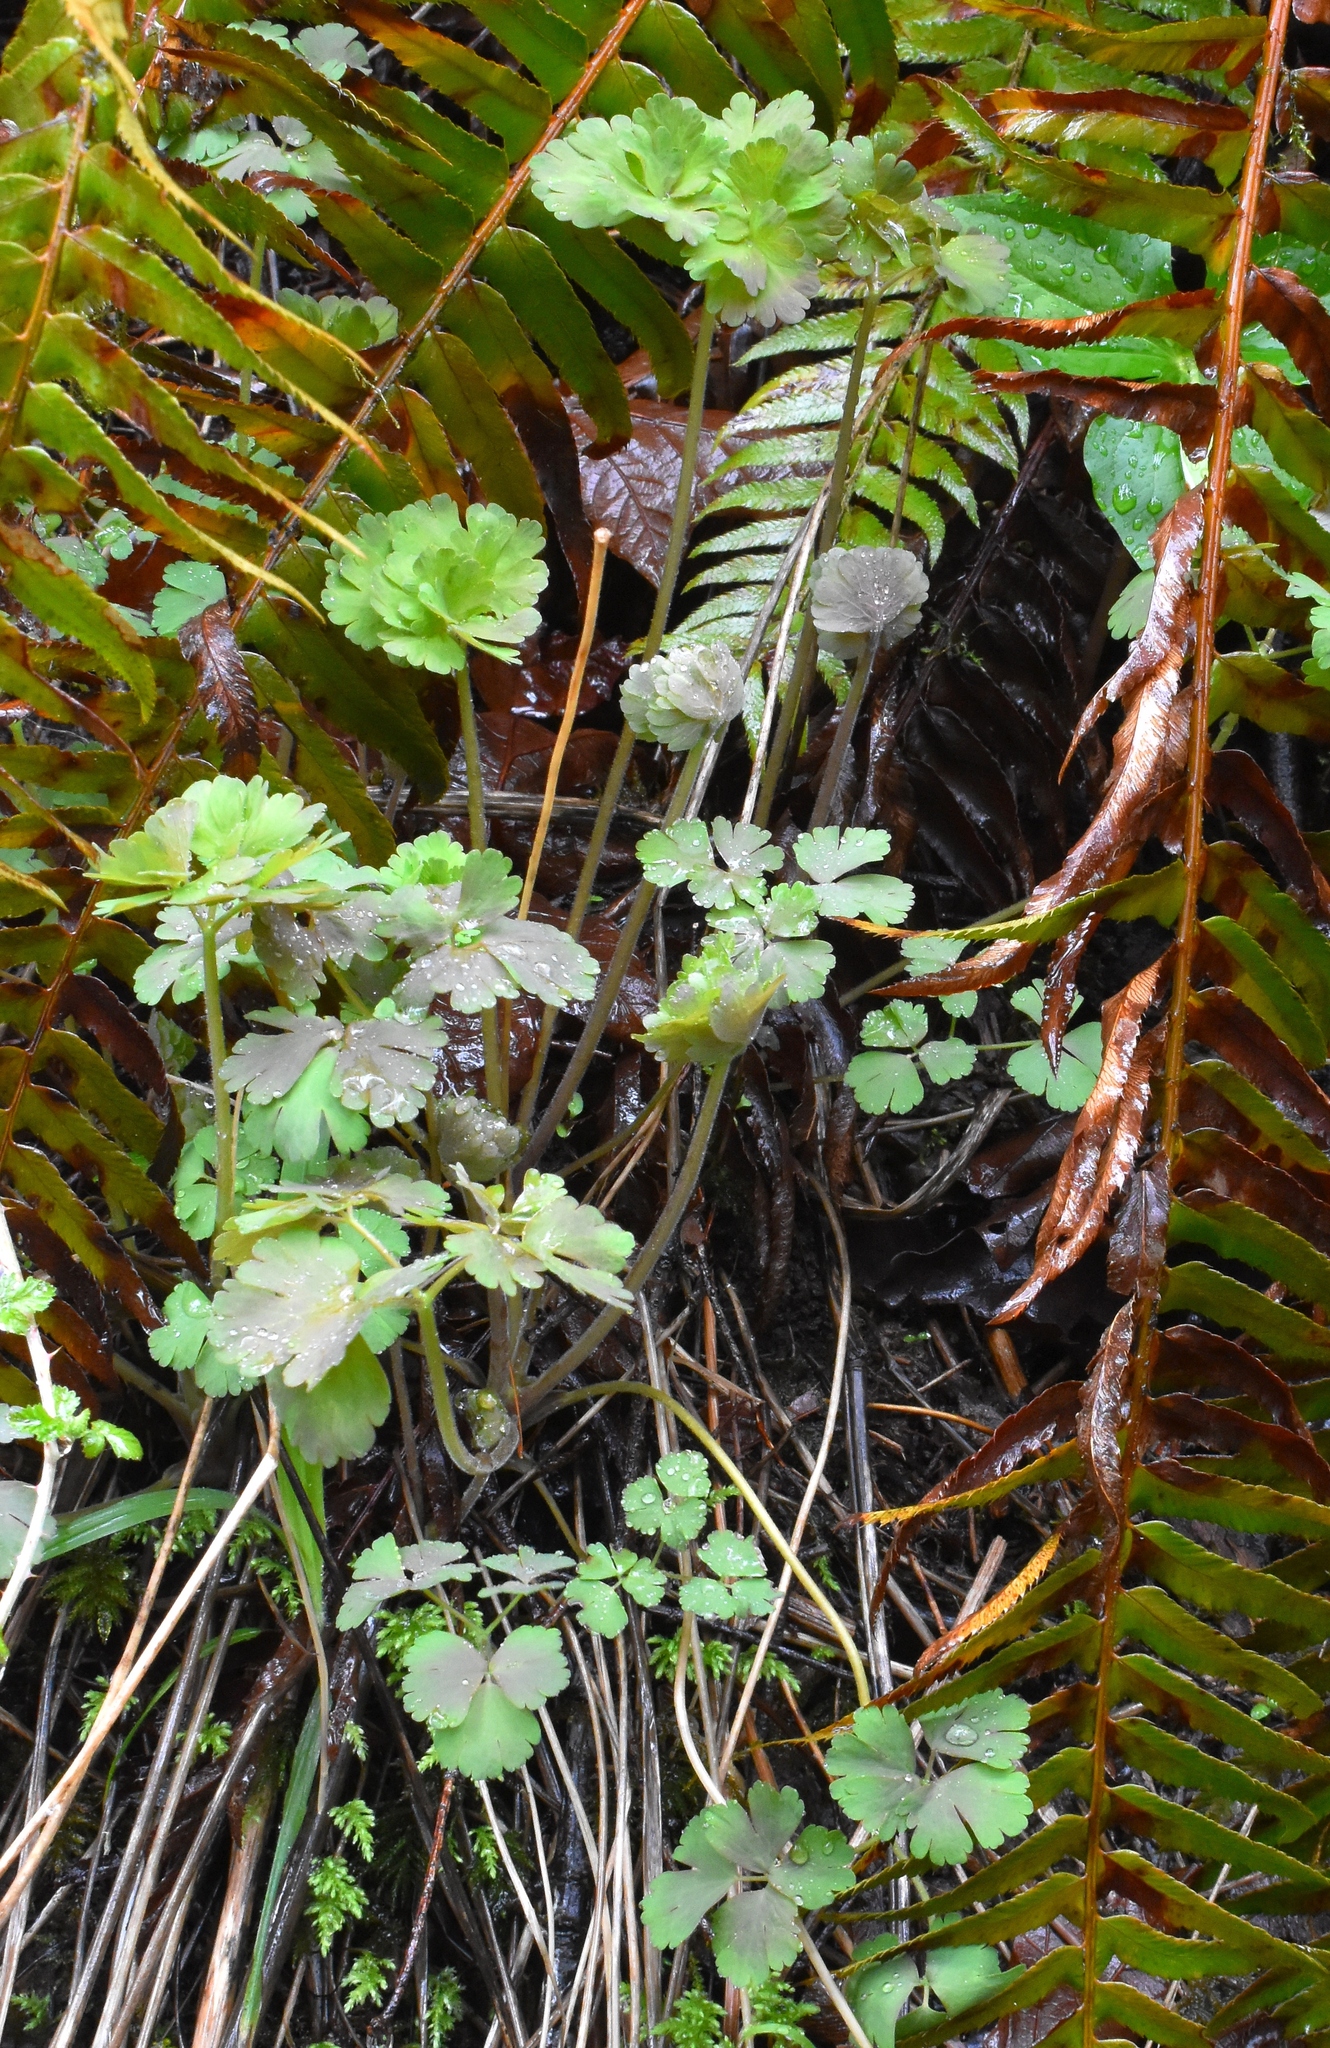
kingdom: Plantae
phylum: Tracheophyta
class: Magnoliopsida
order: Ranunculales
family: Ranunculaceae
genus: Aquilegia
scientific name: Aquilegia formosa
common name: Sitka columbine
